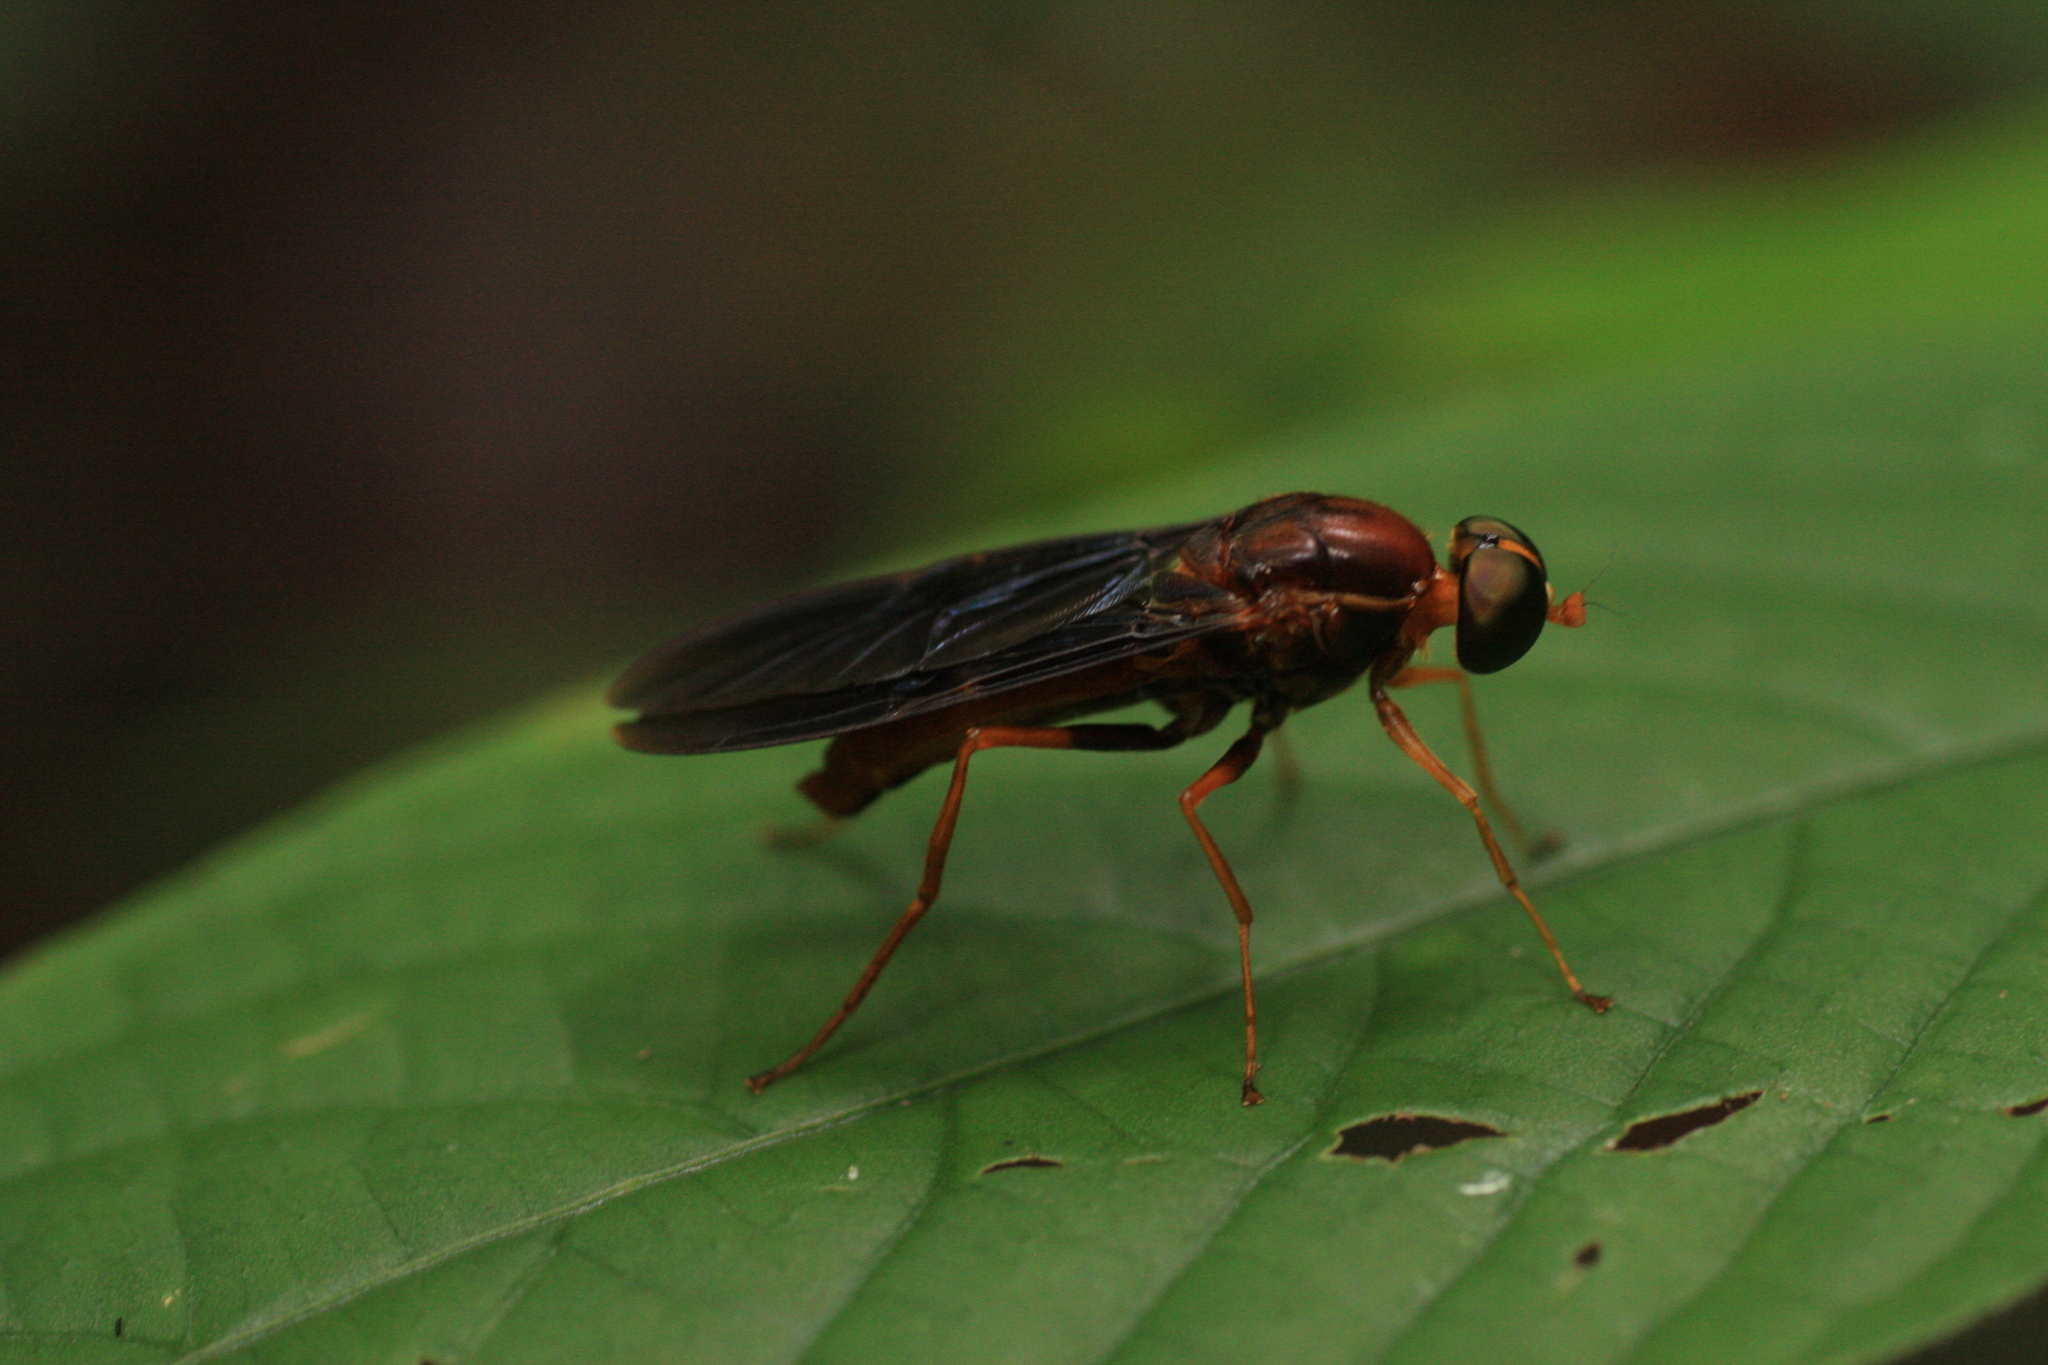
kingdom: Animalia
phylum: Arthropoda
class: Insecta
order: Diptera
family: Stratiomyidae
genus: Ptecticus
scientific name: Ptecticus aurobrunneus
